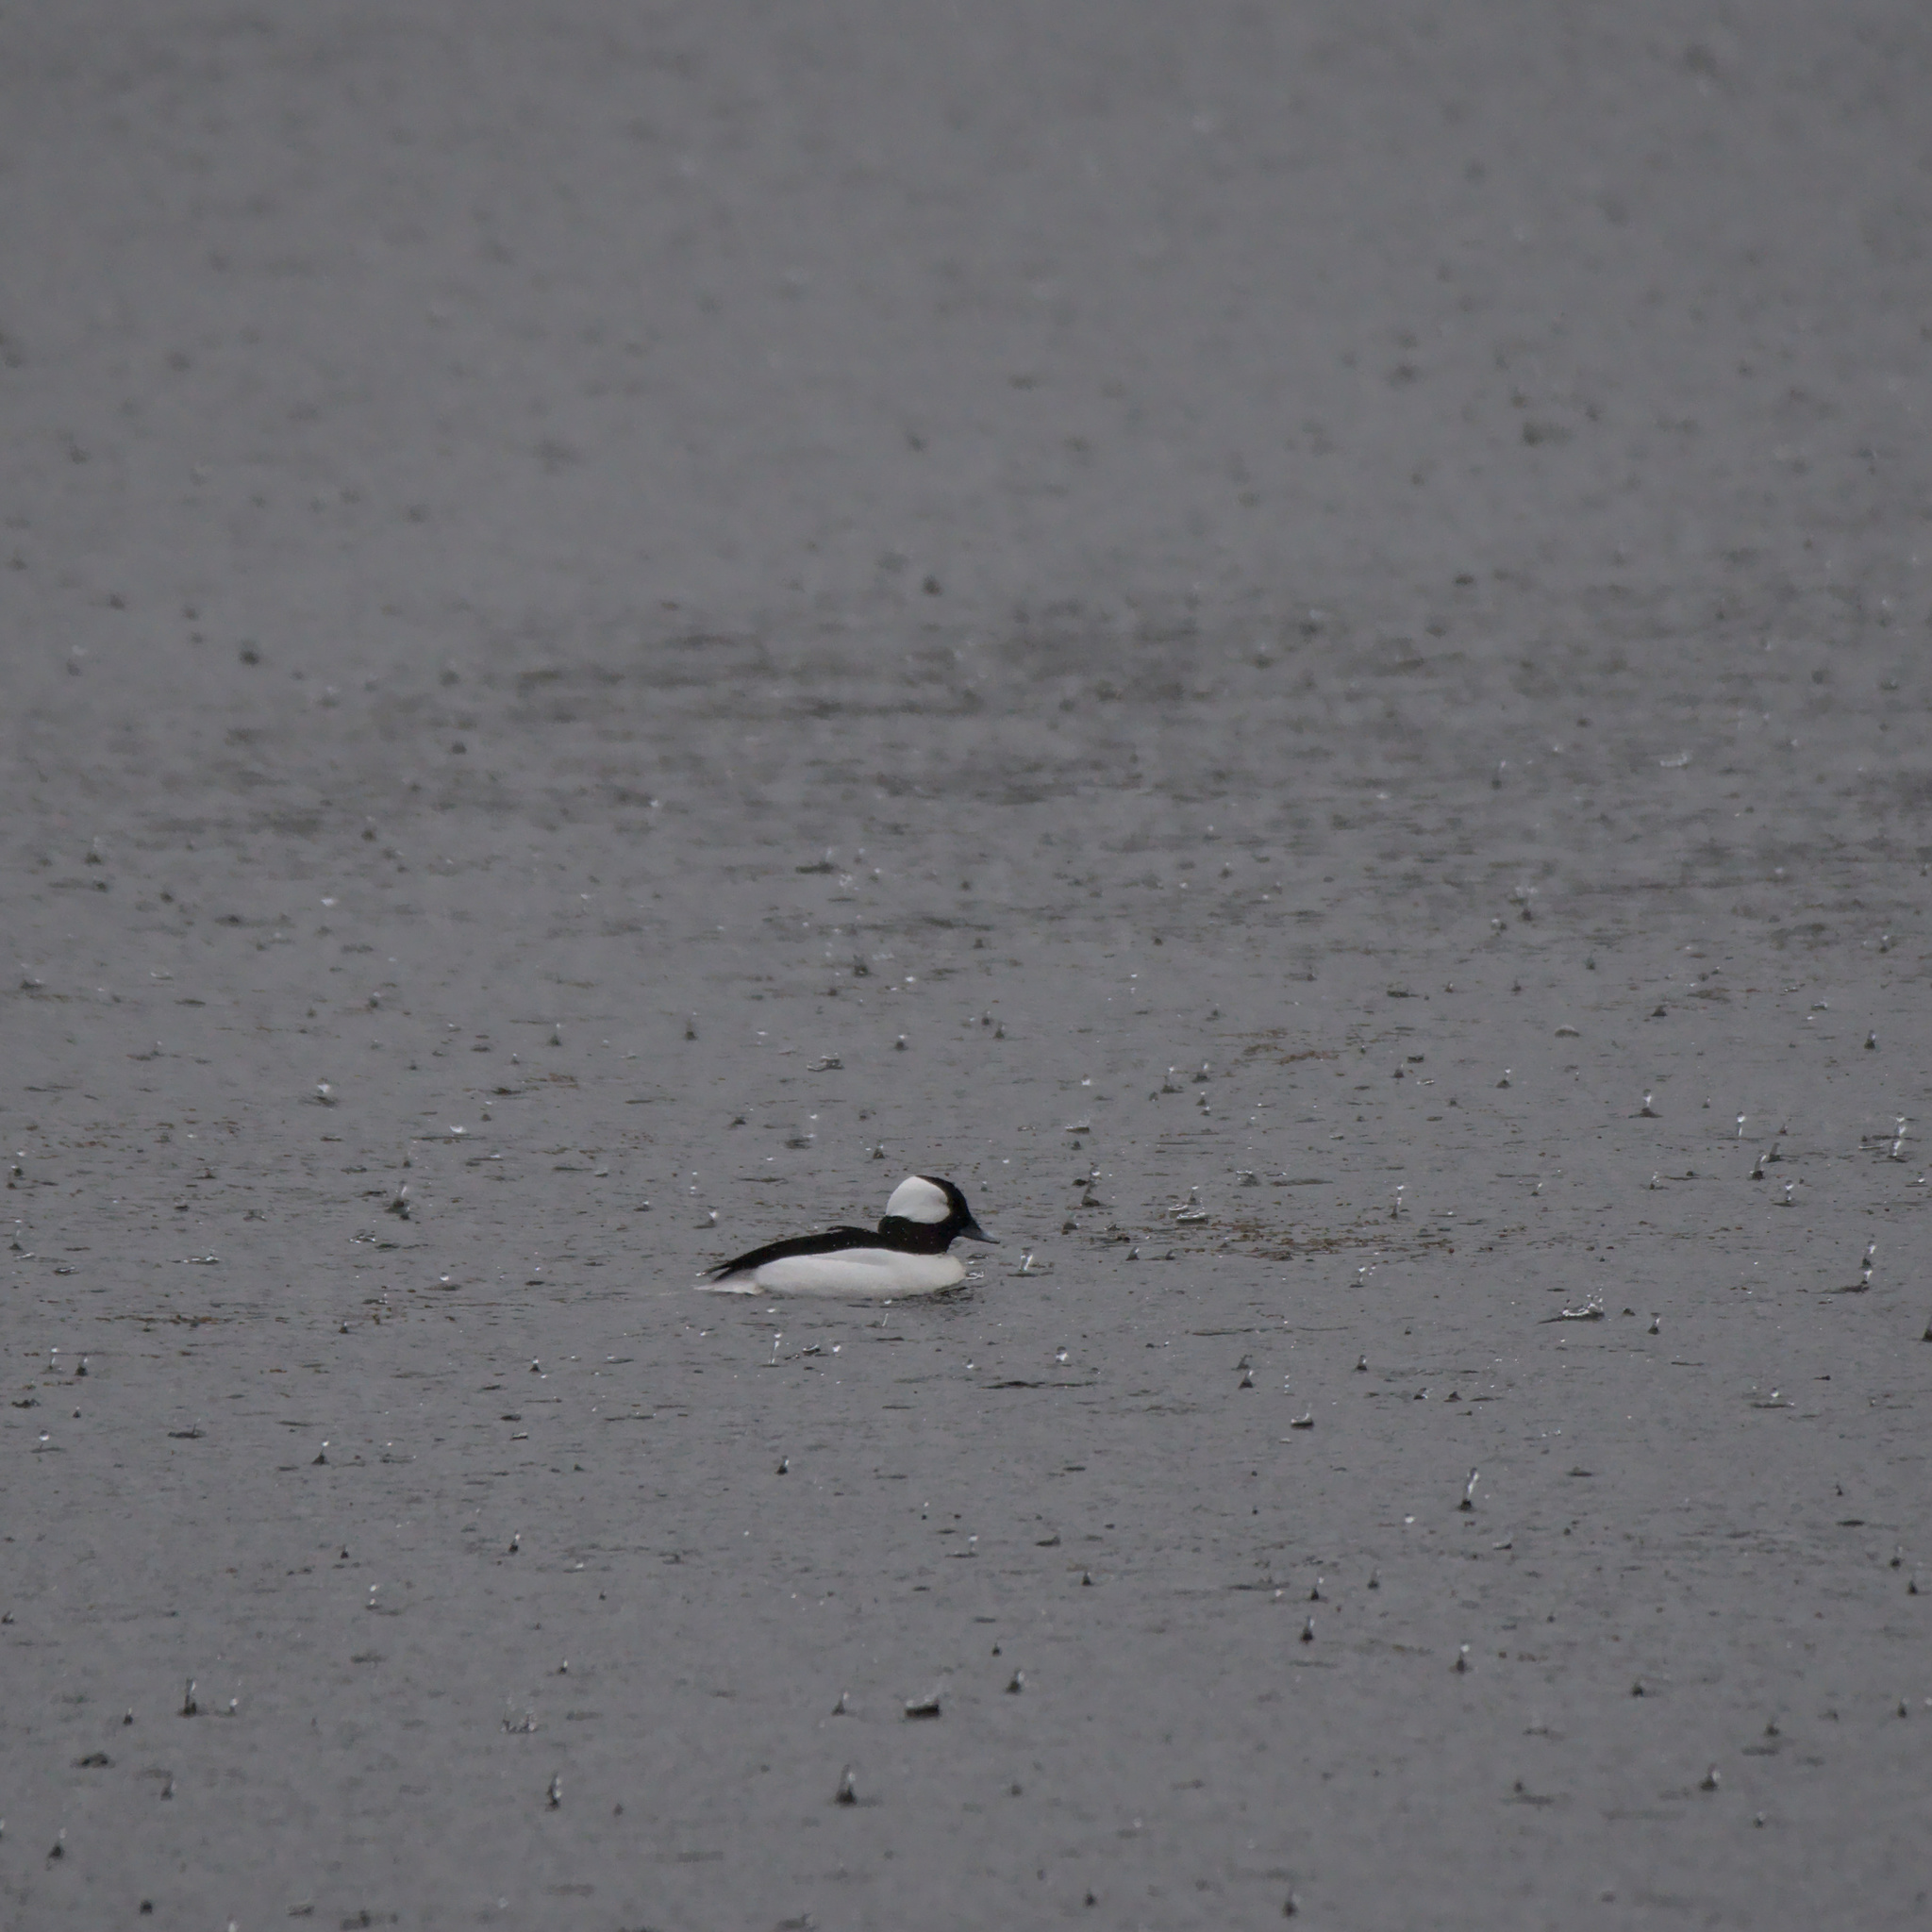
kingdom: Animalia
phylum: Chordata
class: Aves
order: Anseriformes
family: Anatidae
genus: Bucephala
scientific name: Bucephala albeola
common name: Bufflehead
